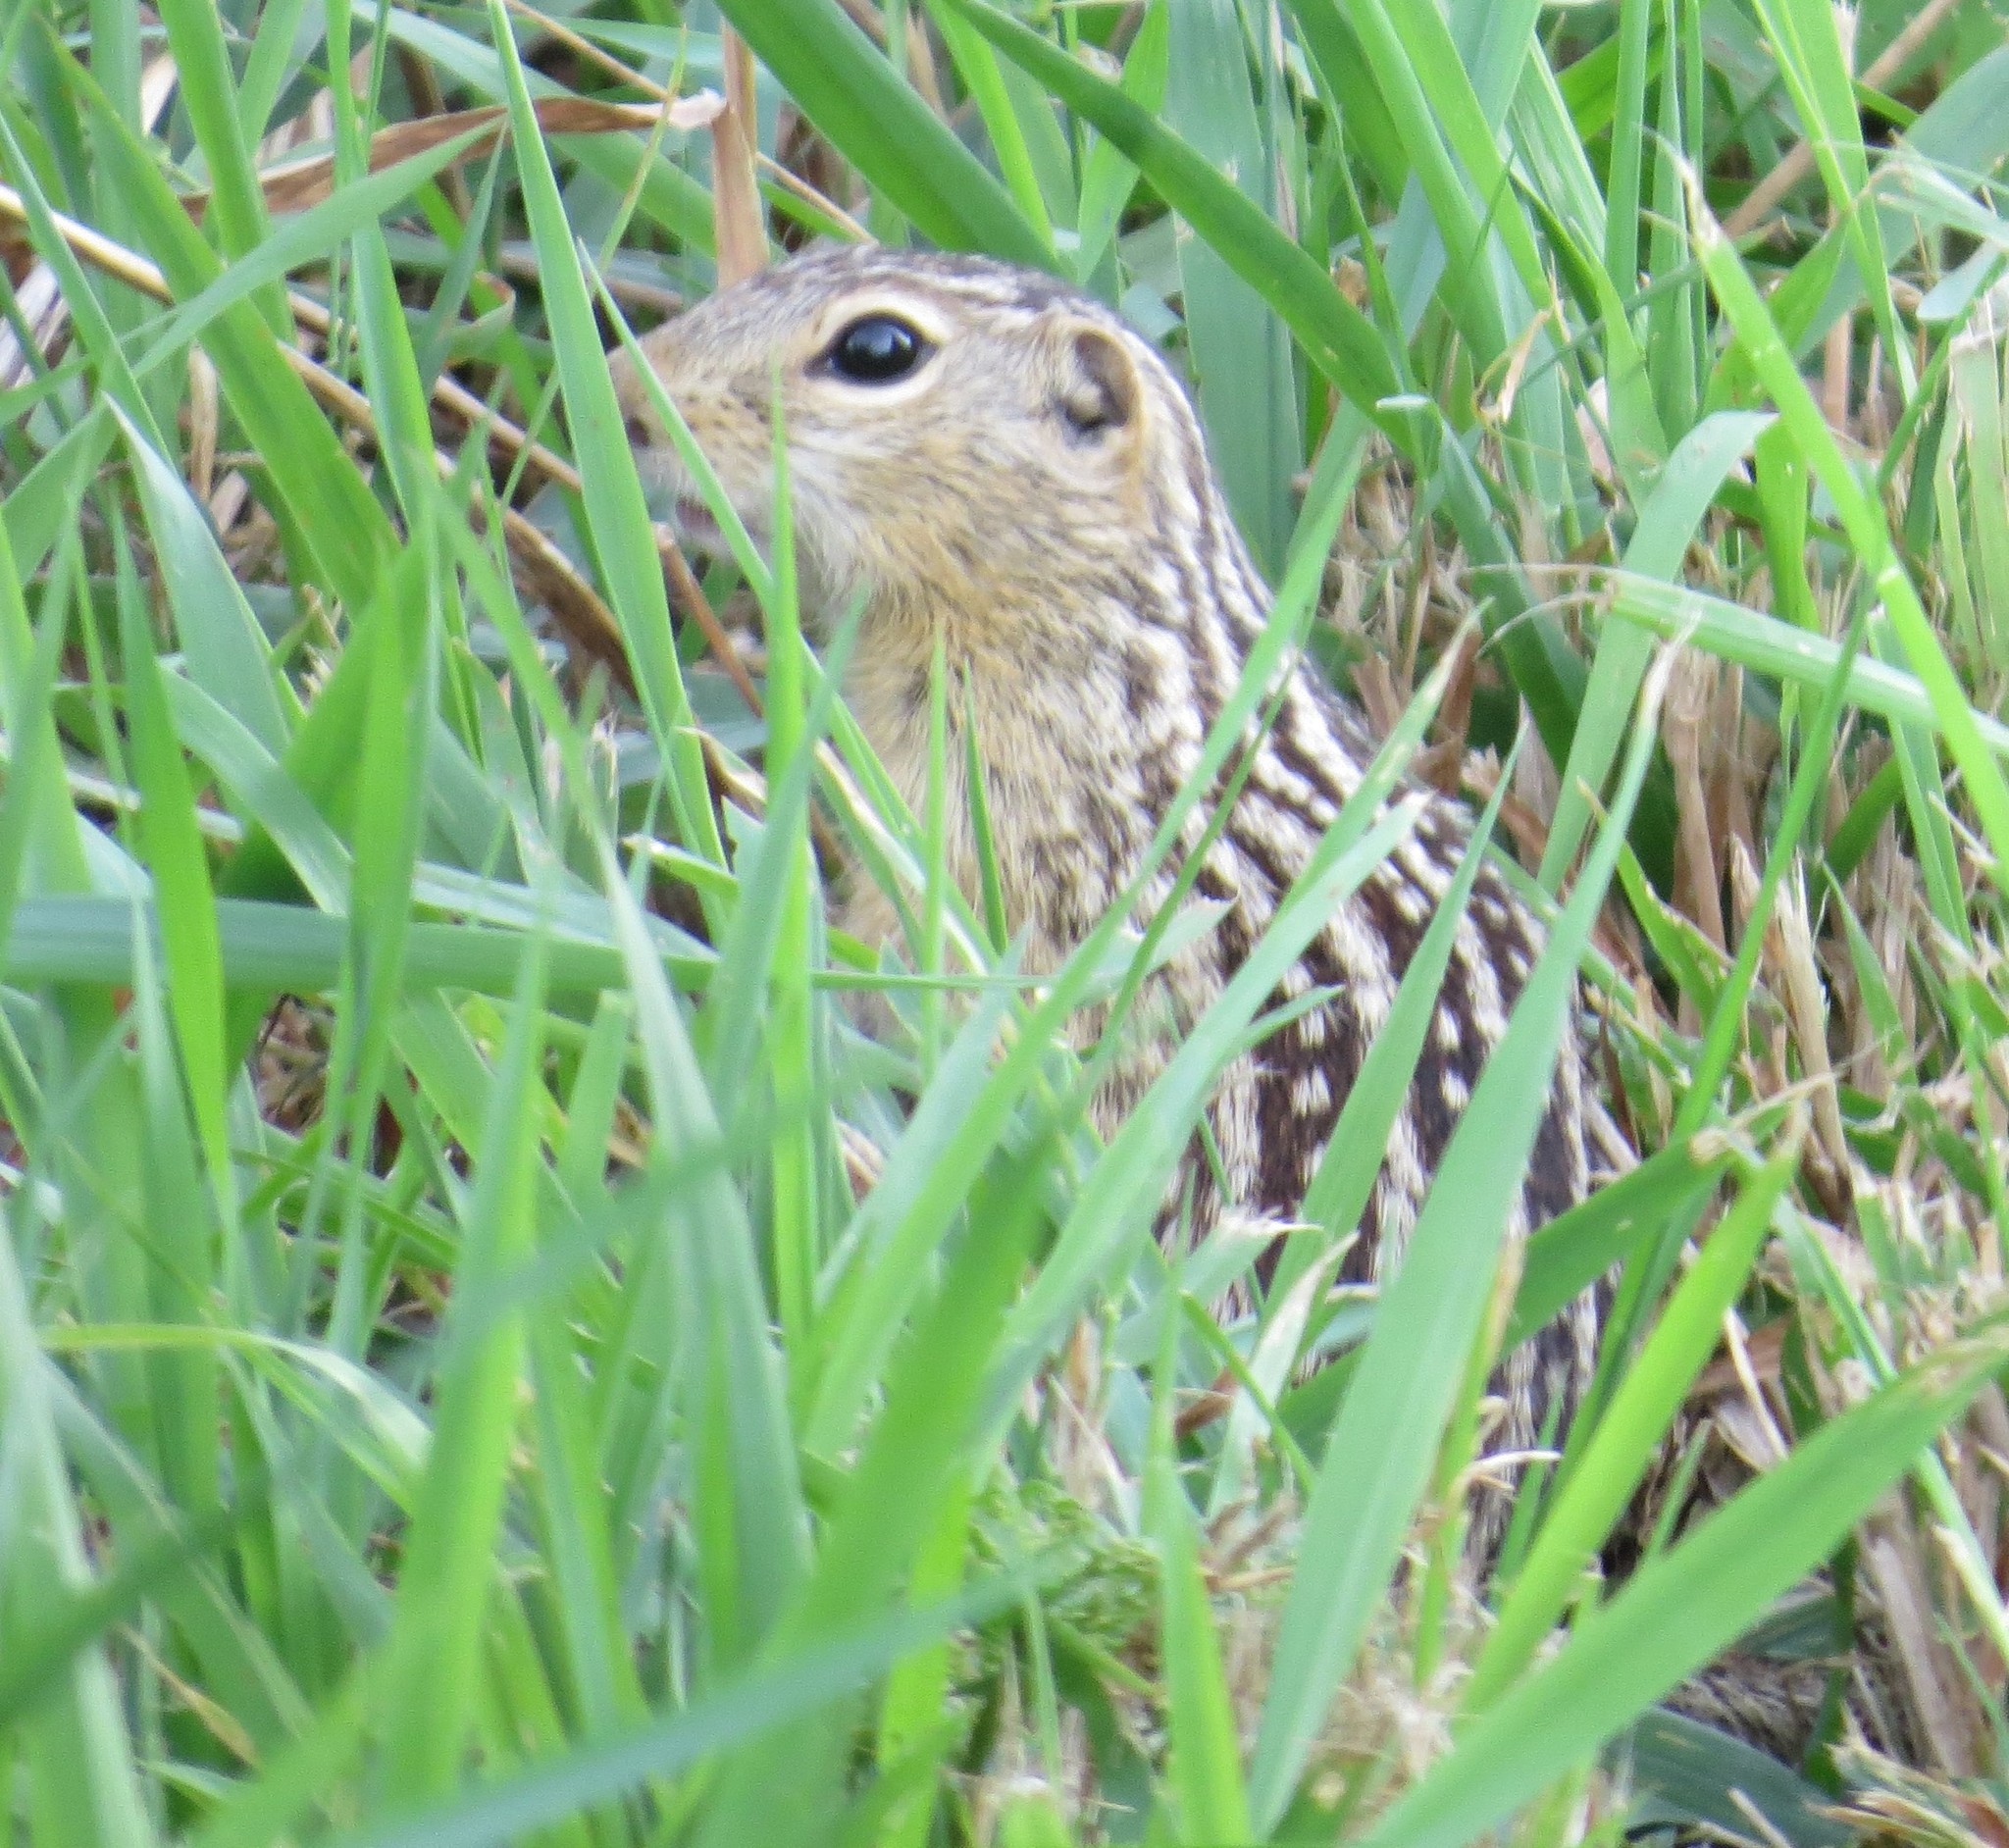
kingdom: Animalia
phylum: Chordata
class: Mammalia
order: Rodentia
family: Sciuridae
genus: Ictidomys
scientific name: Ictidomys tridecemlineatus
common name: Thirteen-lined ground squirrel
